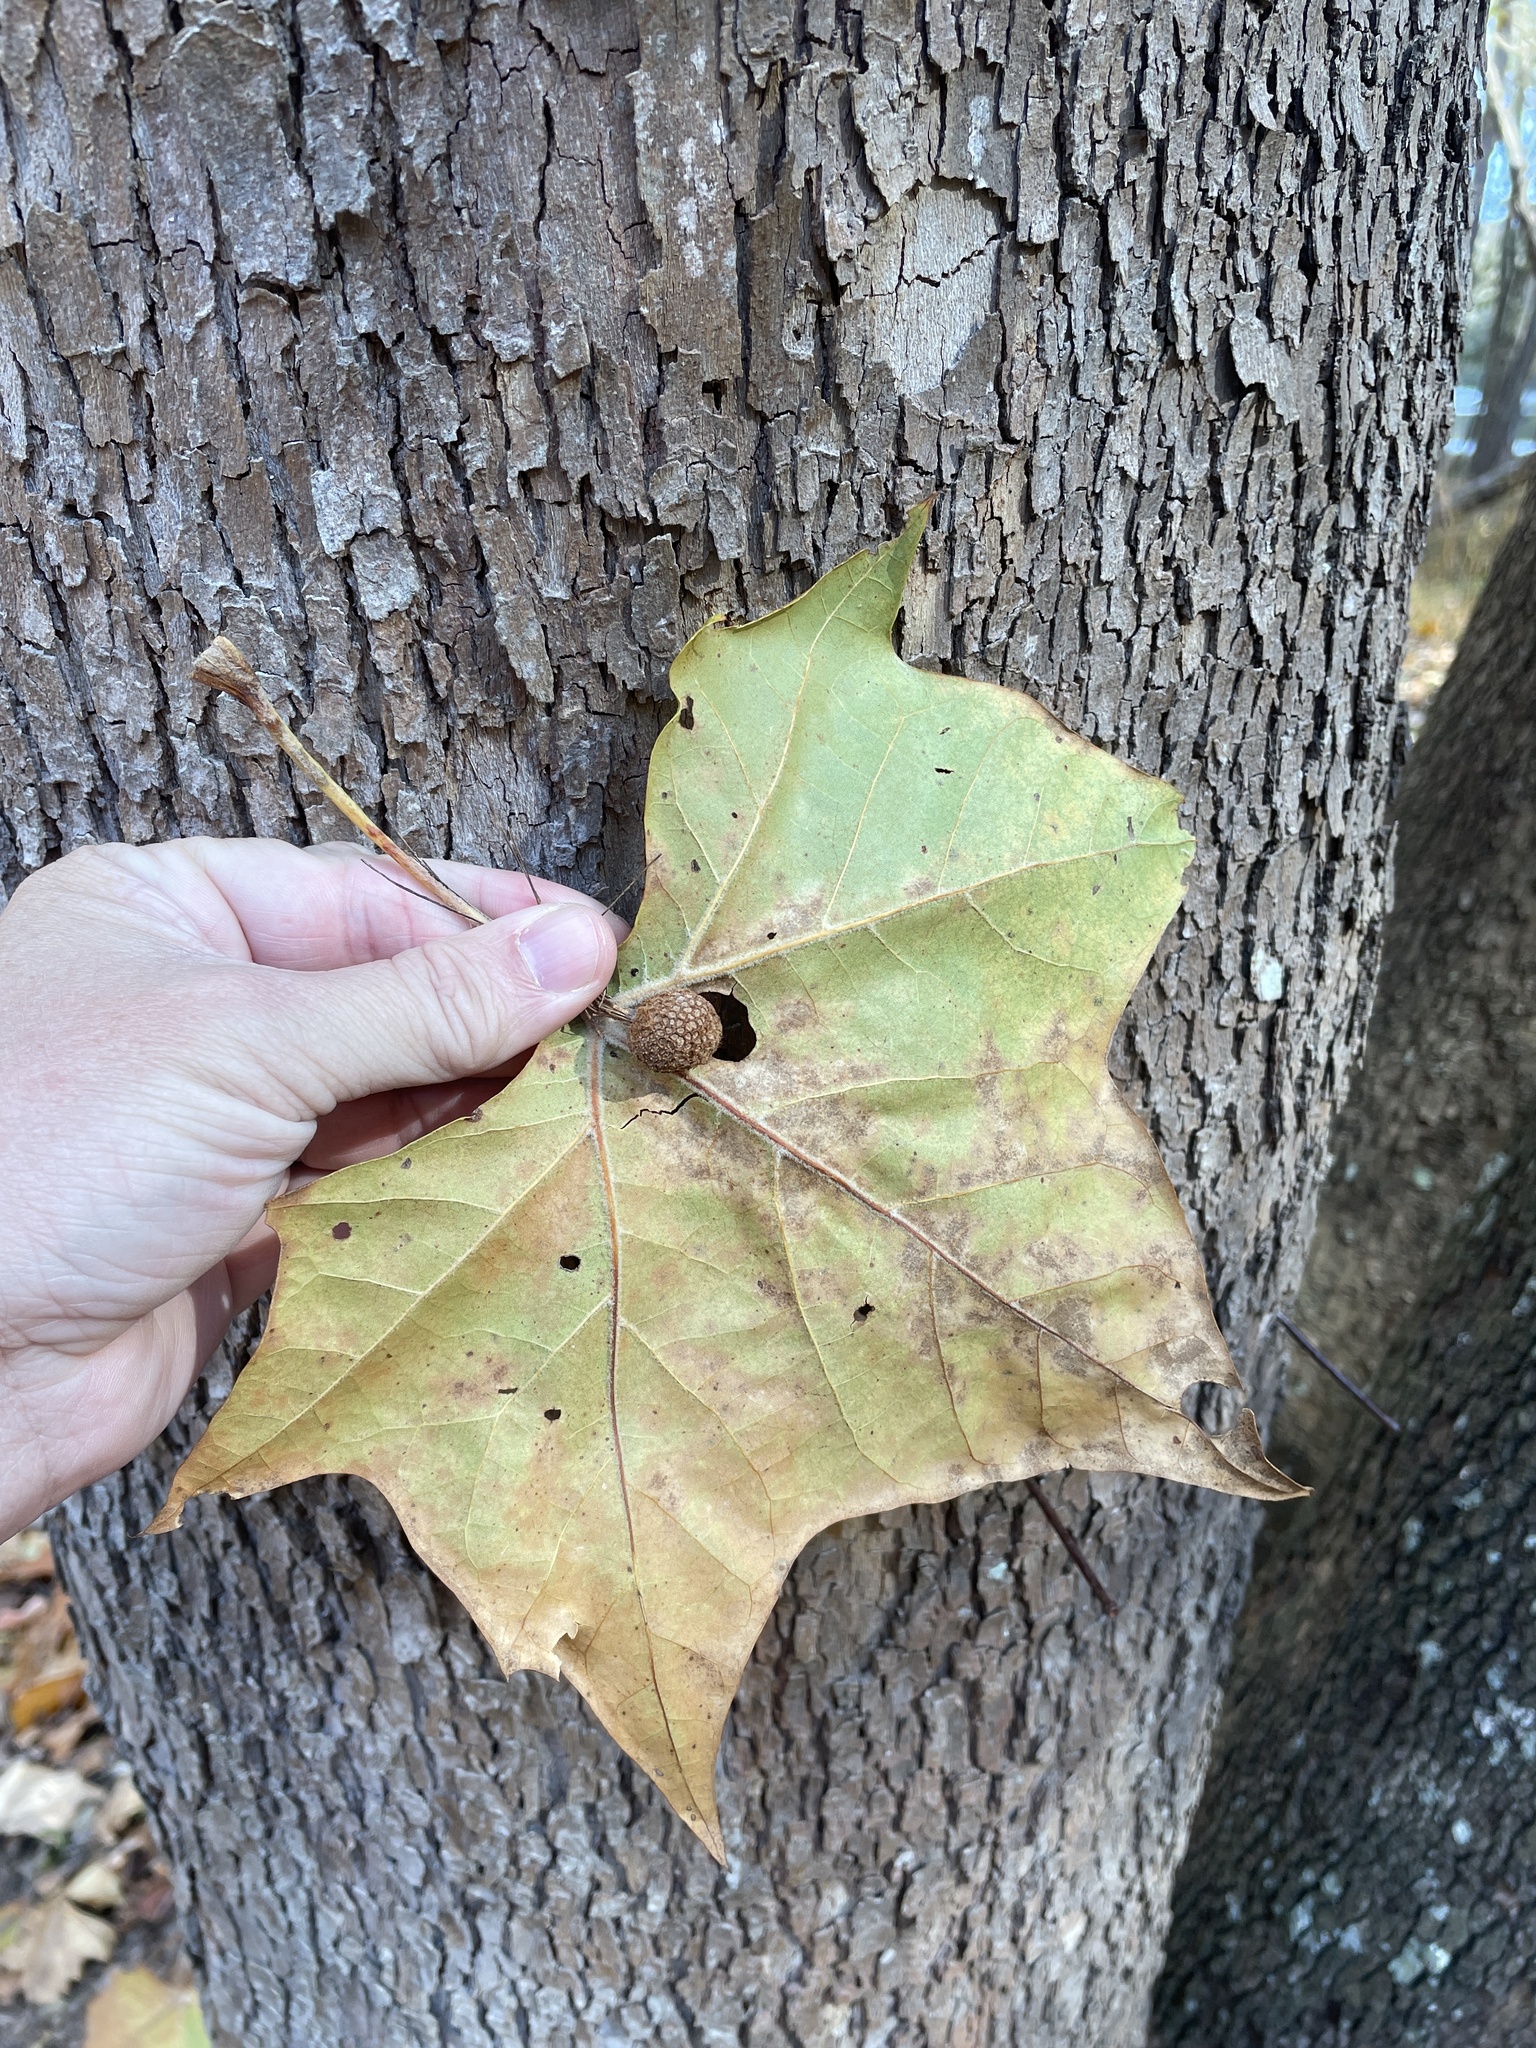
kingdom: Plantae
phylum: Tracheophyta
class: Magnoliopsida
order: Proteales
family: Platanaceae
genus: Platanus
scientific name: Platanus occidentalis
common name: American sycamore
